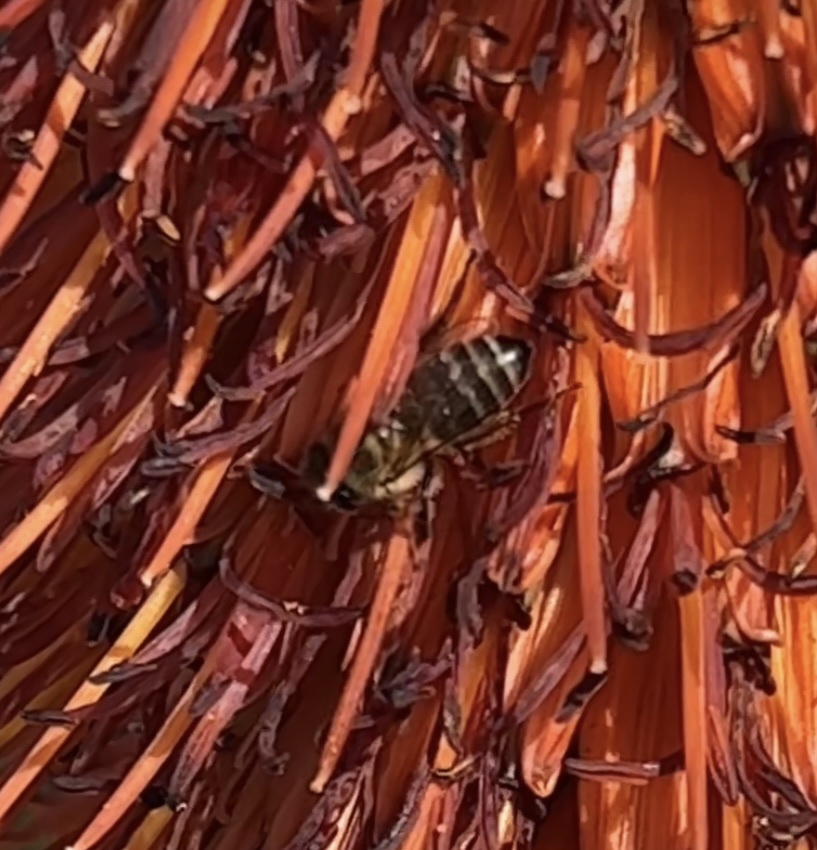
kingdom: Animalia
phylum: Arthropoda
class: Insecta
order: Hymenoptera
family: Apidae
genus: Apis
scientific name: Apis mellifera
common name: Honey bee
